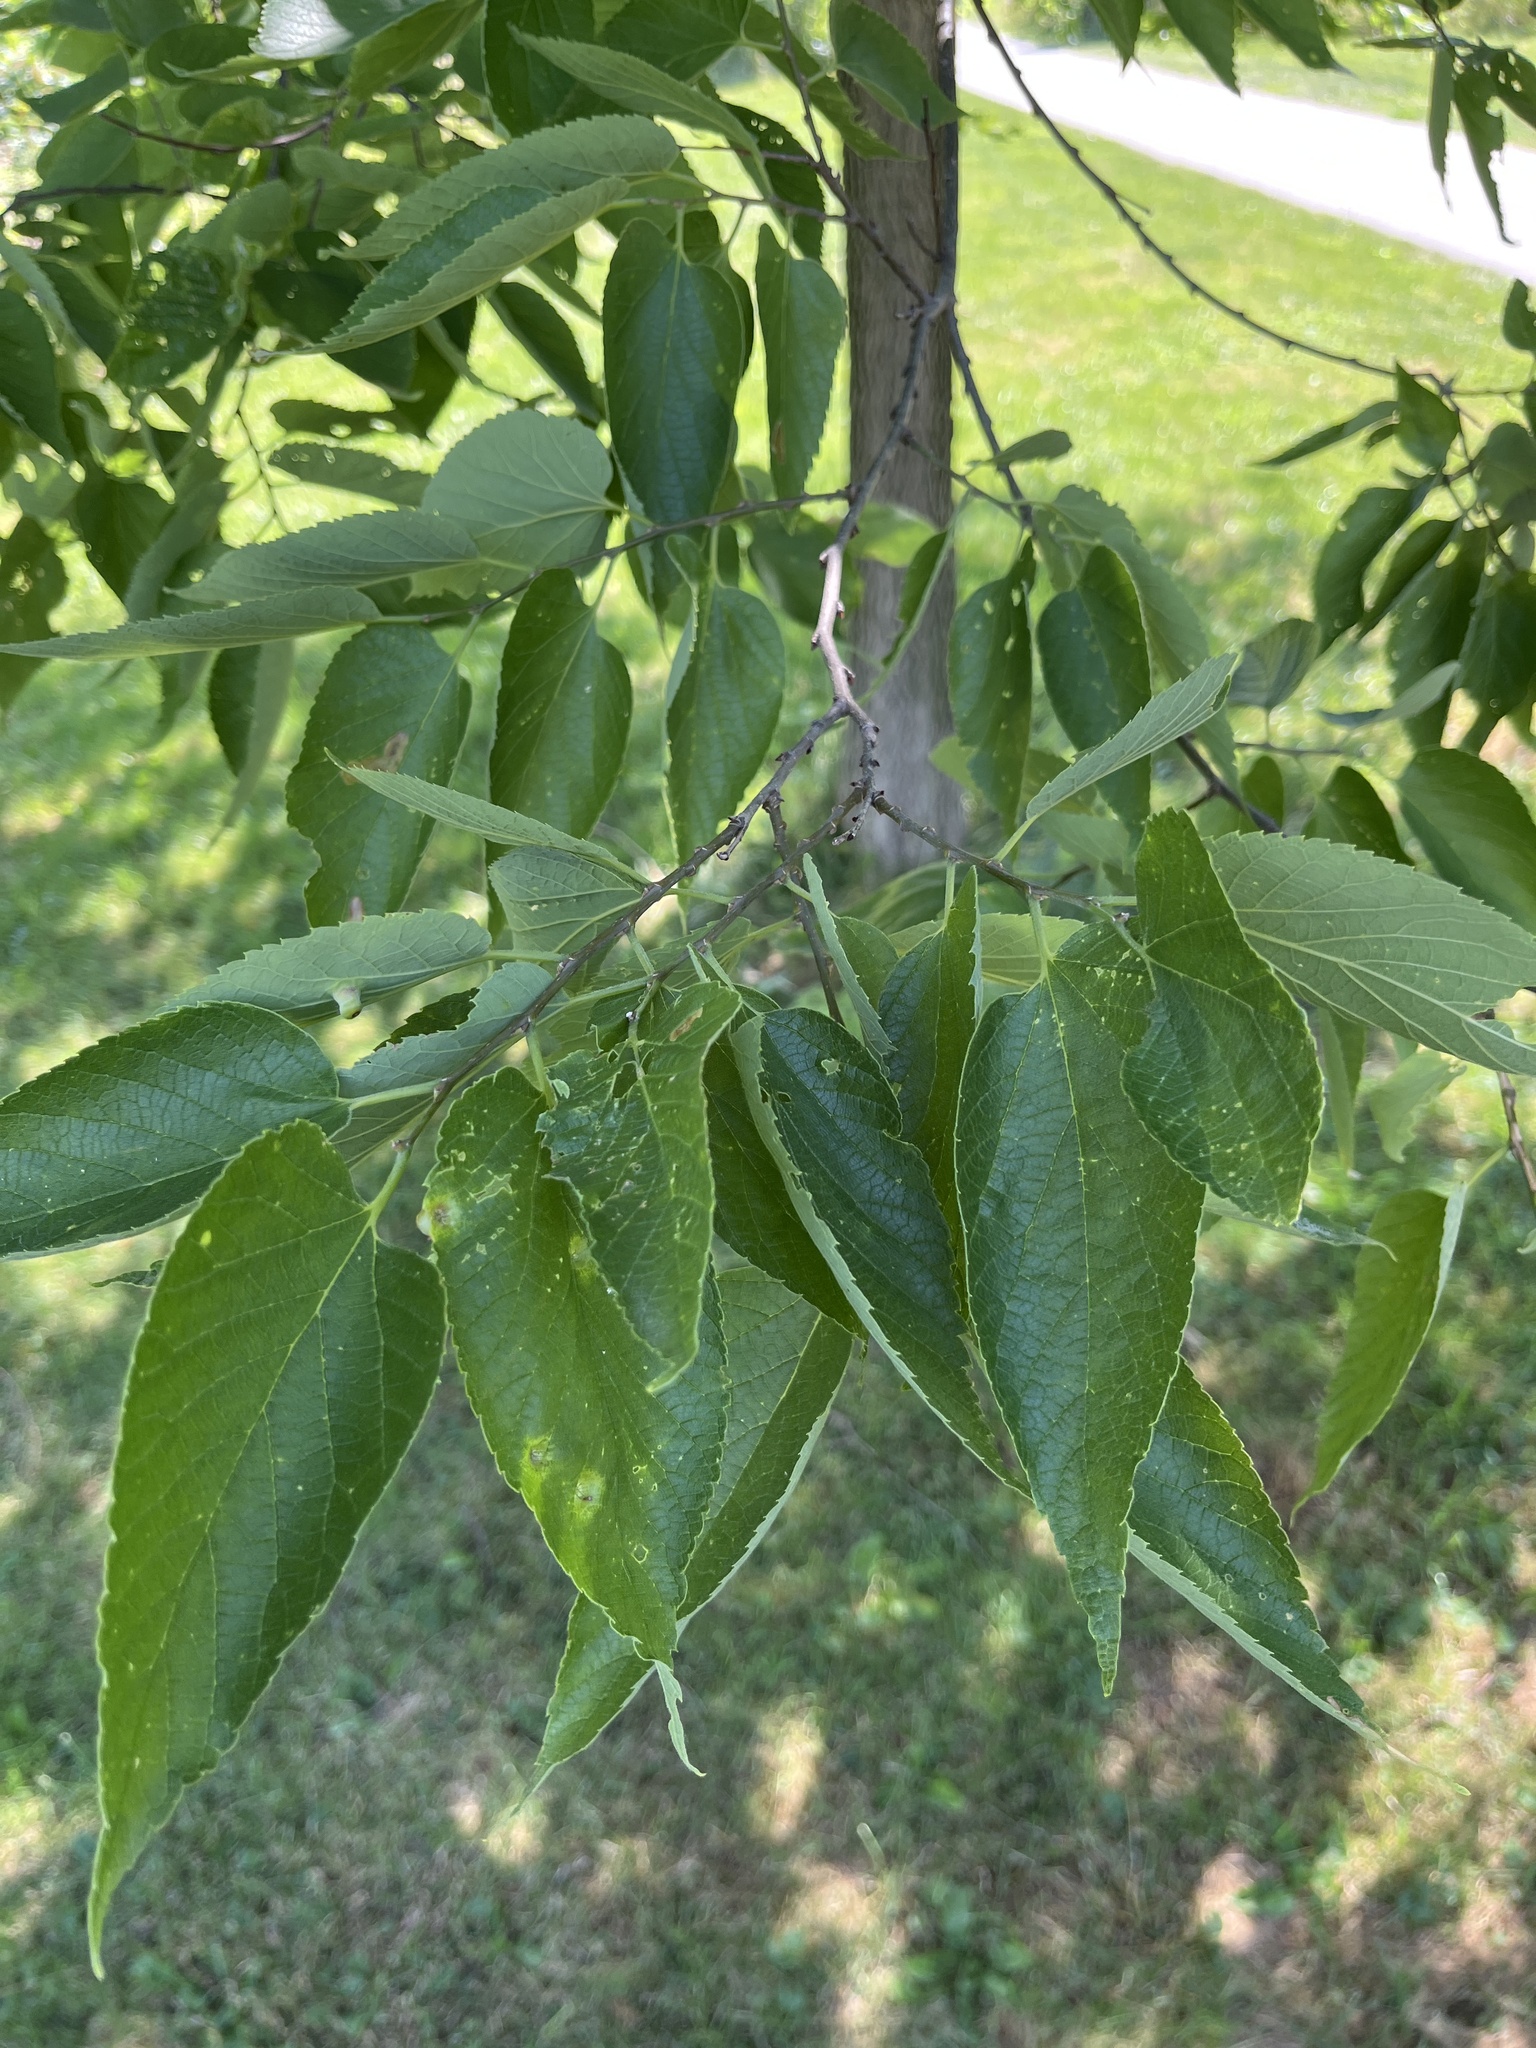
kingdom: Plantae
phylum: Tracheophyta
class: Magnoliopsida
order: Rosales
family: Cannabaceae
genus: Celtis
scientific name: Celtis occidentalis
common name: Common hackberry
